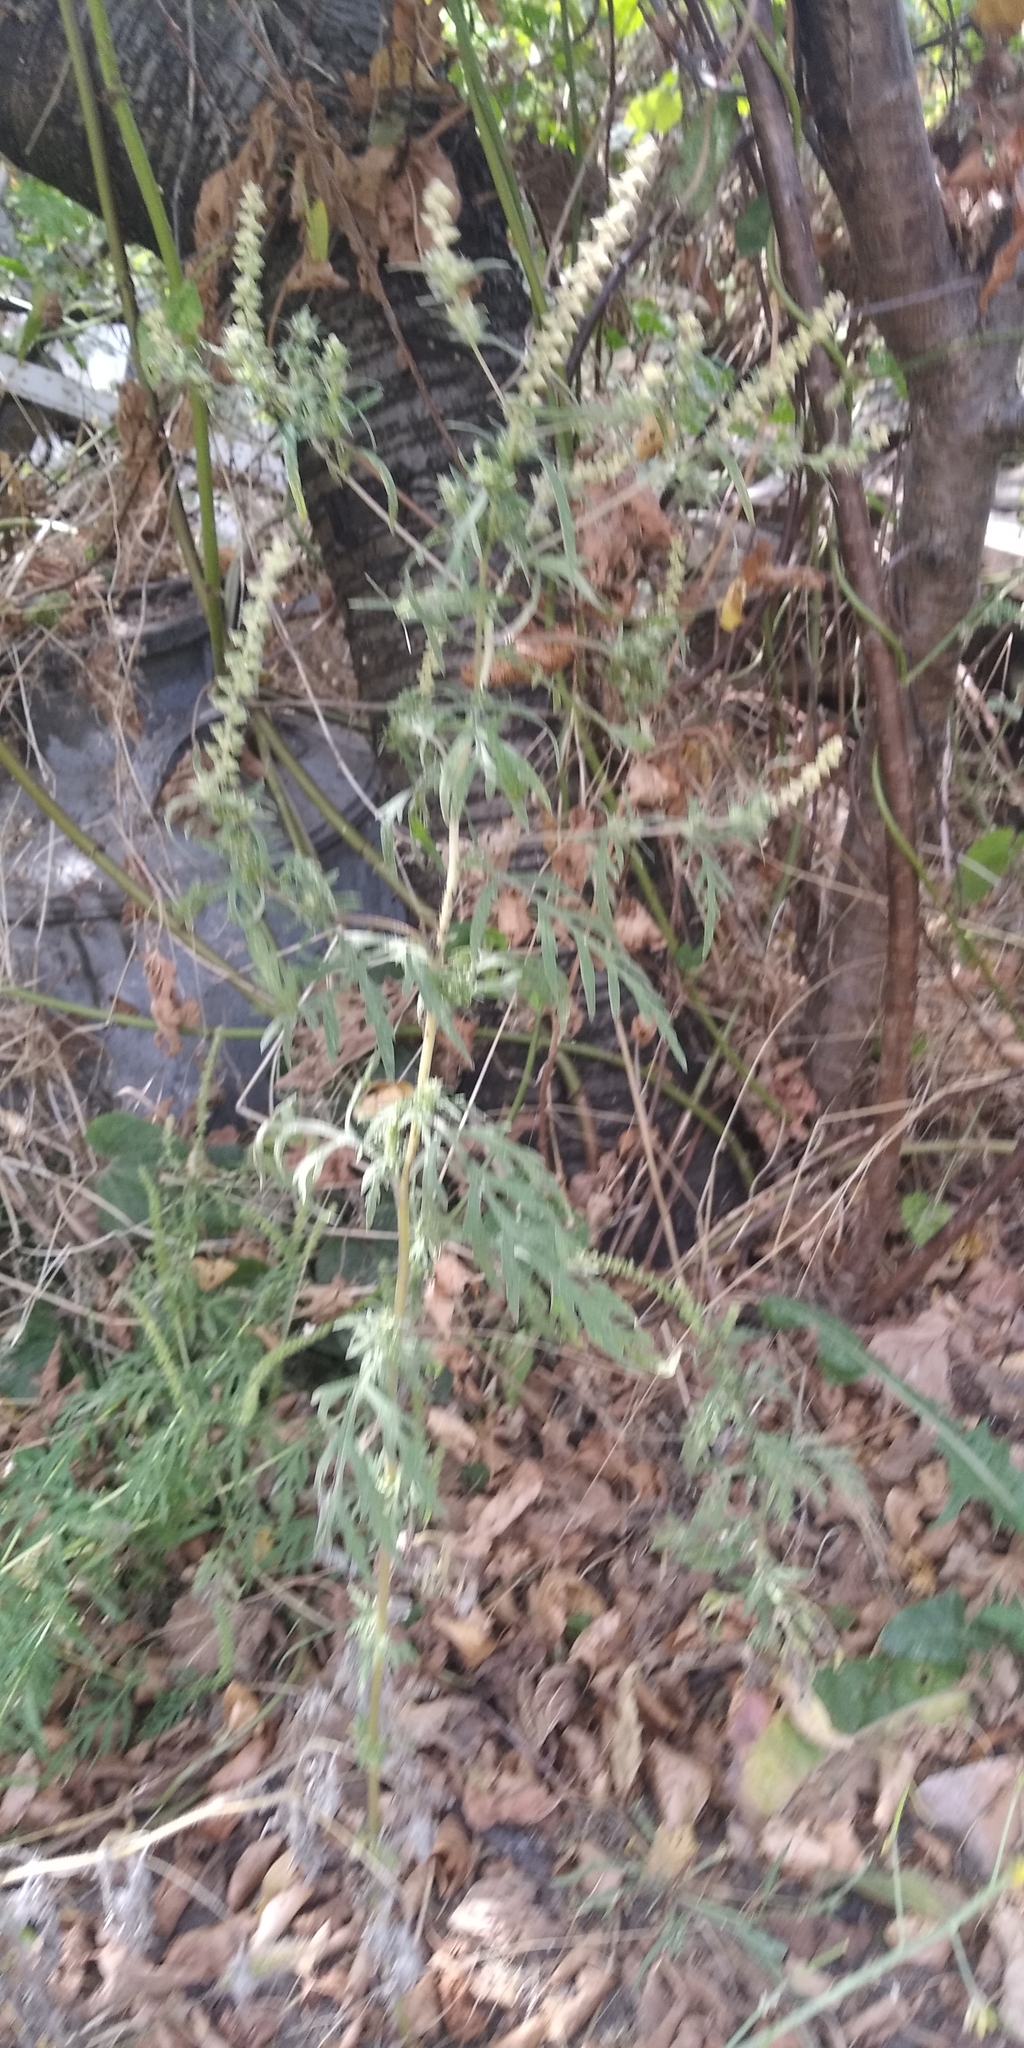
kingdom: Plantae
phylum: Tracheophyta
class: Magnoliopsida
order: Asterales
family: Asteraceae
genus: Ambrosia
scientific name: Ambrosia artemisiifolia
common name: Annual ragweed
